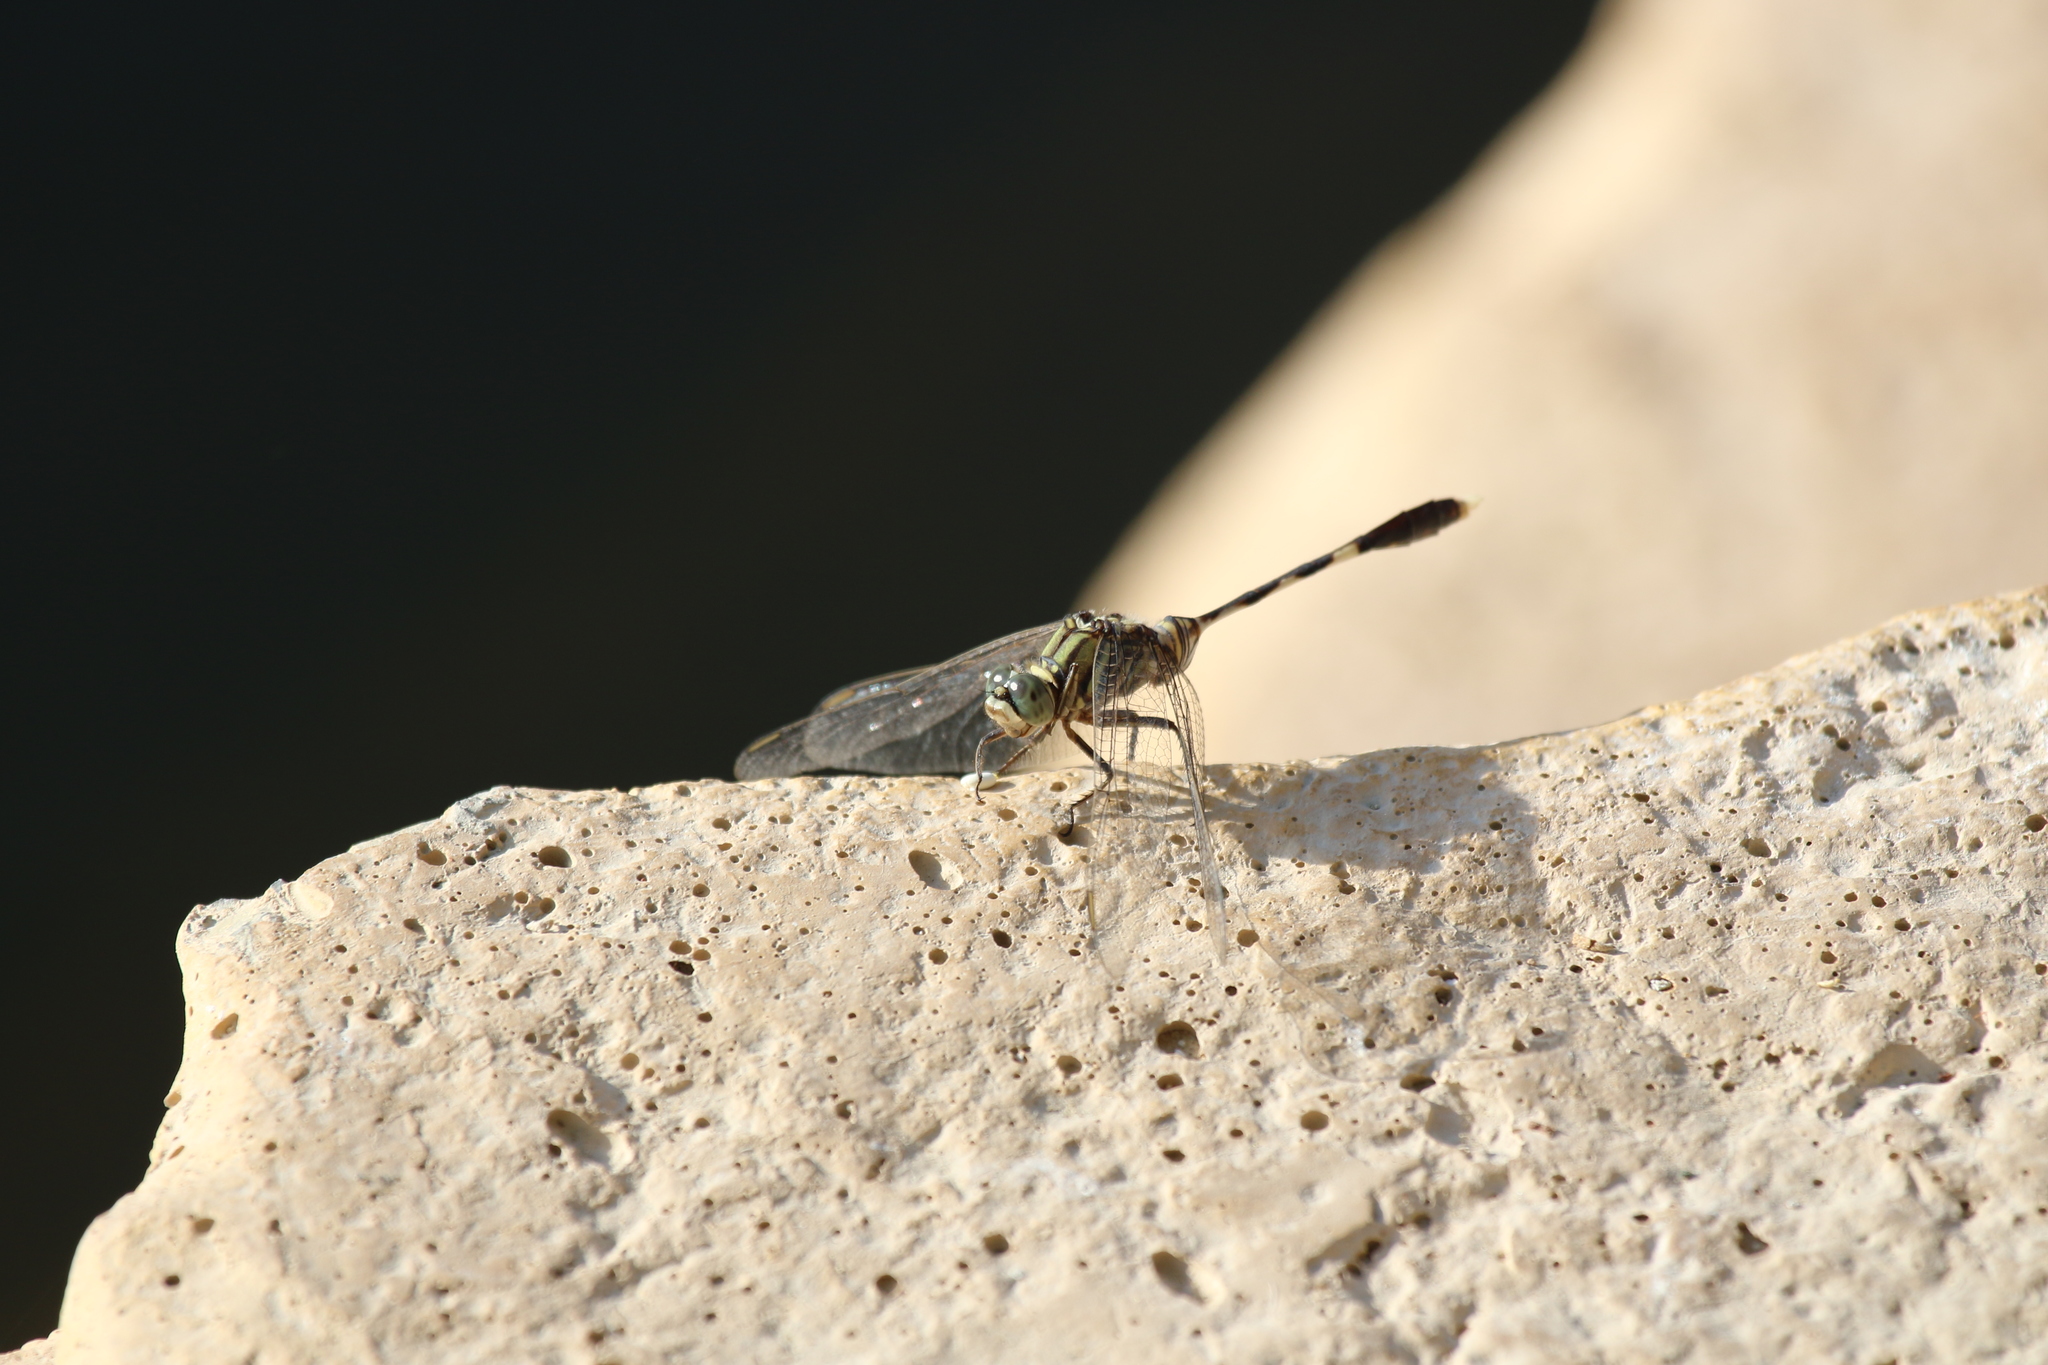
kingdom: Animalia
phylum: Arthropoda
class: Insecta
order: Odonata
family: Libellulidae
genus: Orthetrum
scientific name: Orthetrum sabina
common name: Slender skimmer
